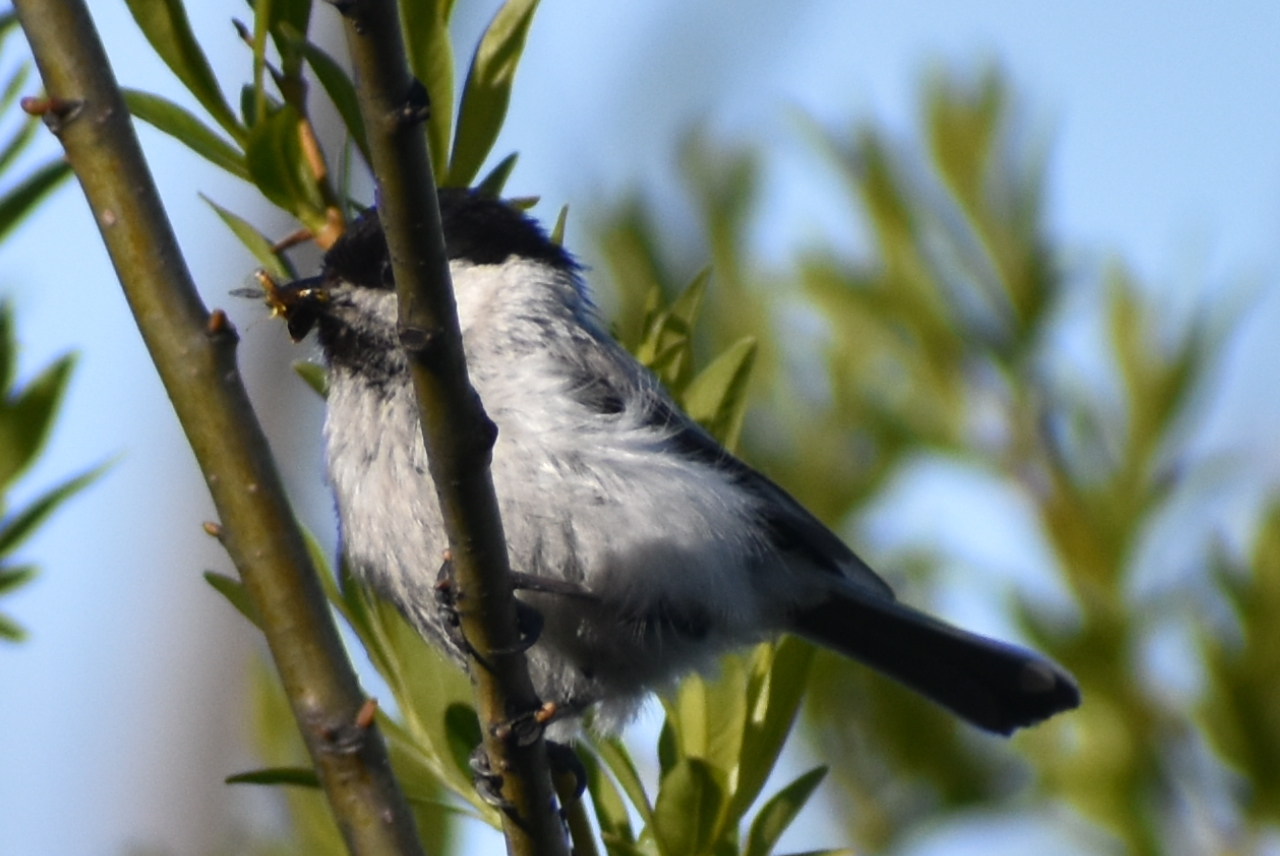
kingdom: Animalia
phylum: Chordata
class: Aves
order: Passeriformes
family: Paridae
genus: Poecile
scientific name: Poecile montanus
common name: Willow tit
